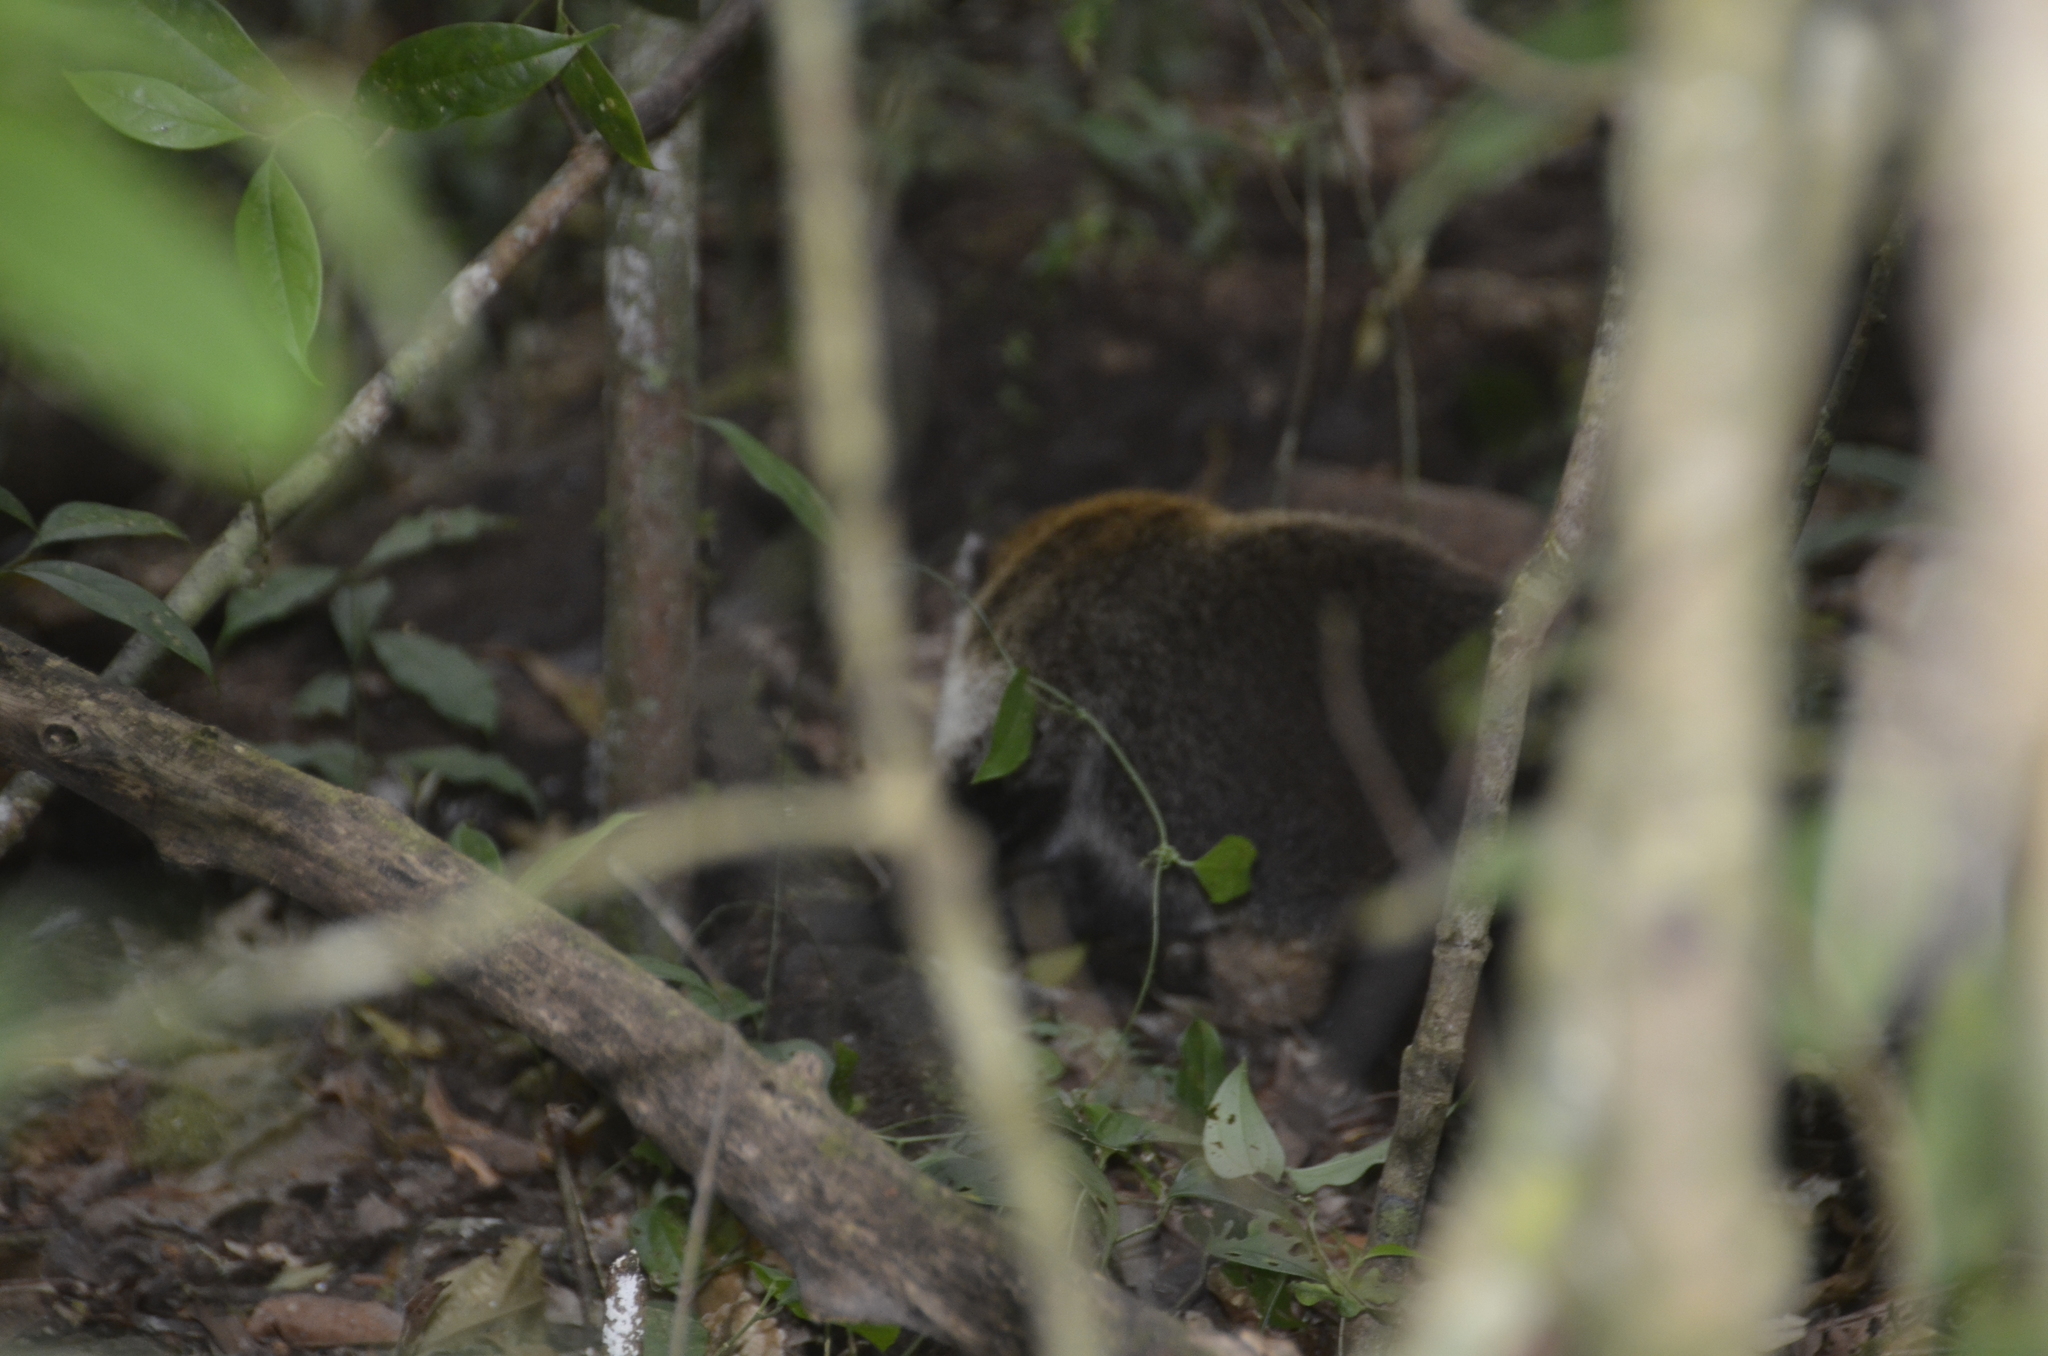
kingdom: Animalia
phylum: Chordata
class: Mammalia
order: Carnivora
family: Procyonidae
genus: Nasua
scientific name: Nasua narica
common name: White-nosed coati
